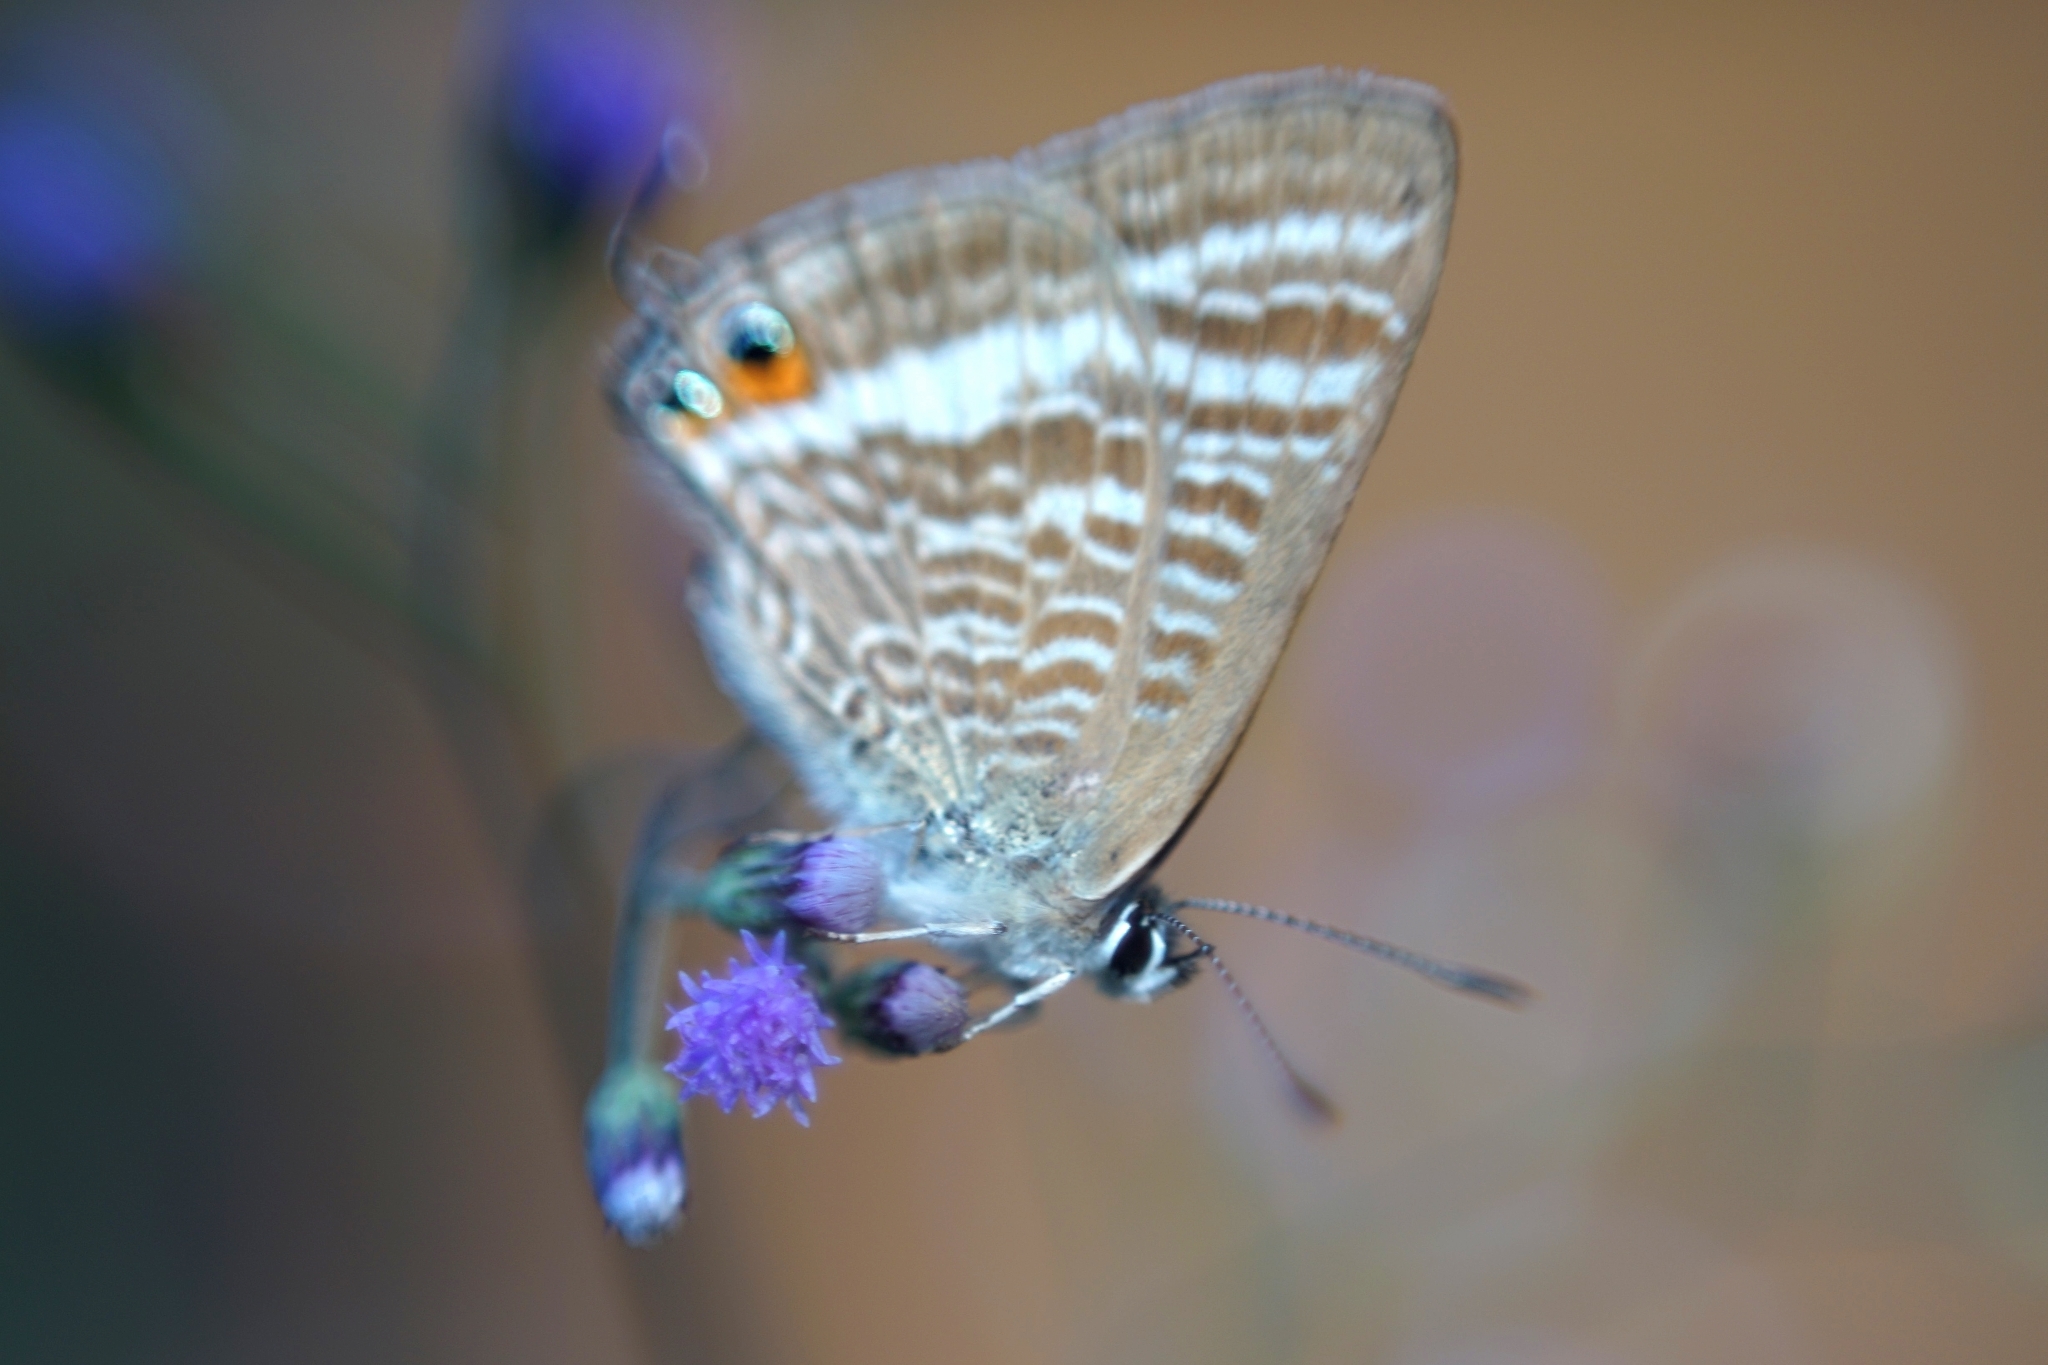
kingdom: Animalia
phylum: Arthropoda
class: Insecta
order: Lepidoptera
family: Lycaenidae
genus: Lampides
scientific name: Lampides boeticus
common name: Long-tailed blue
